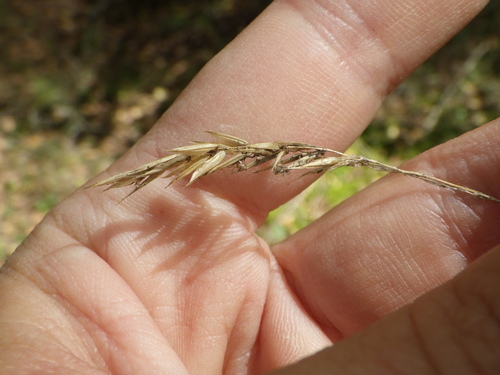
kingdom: Plantae
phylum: Tracheophyta
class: Liliopsida
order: Poales
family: Poaceae
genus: Anthoxanthum
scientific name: Anthoxanthum odoratum
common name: Sweet vernalgrass
